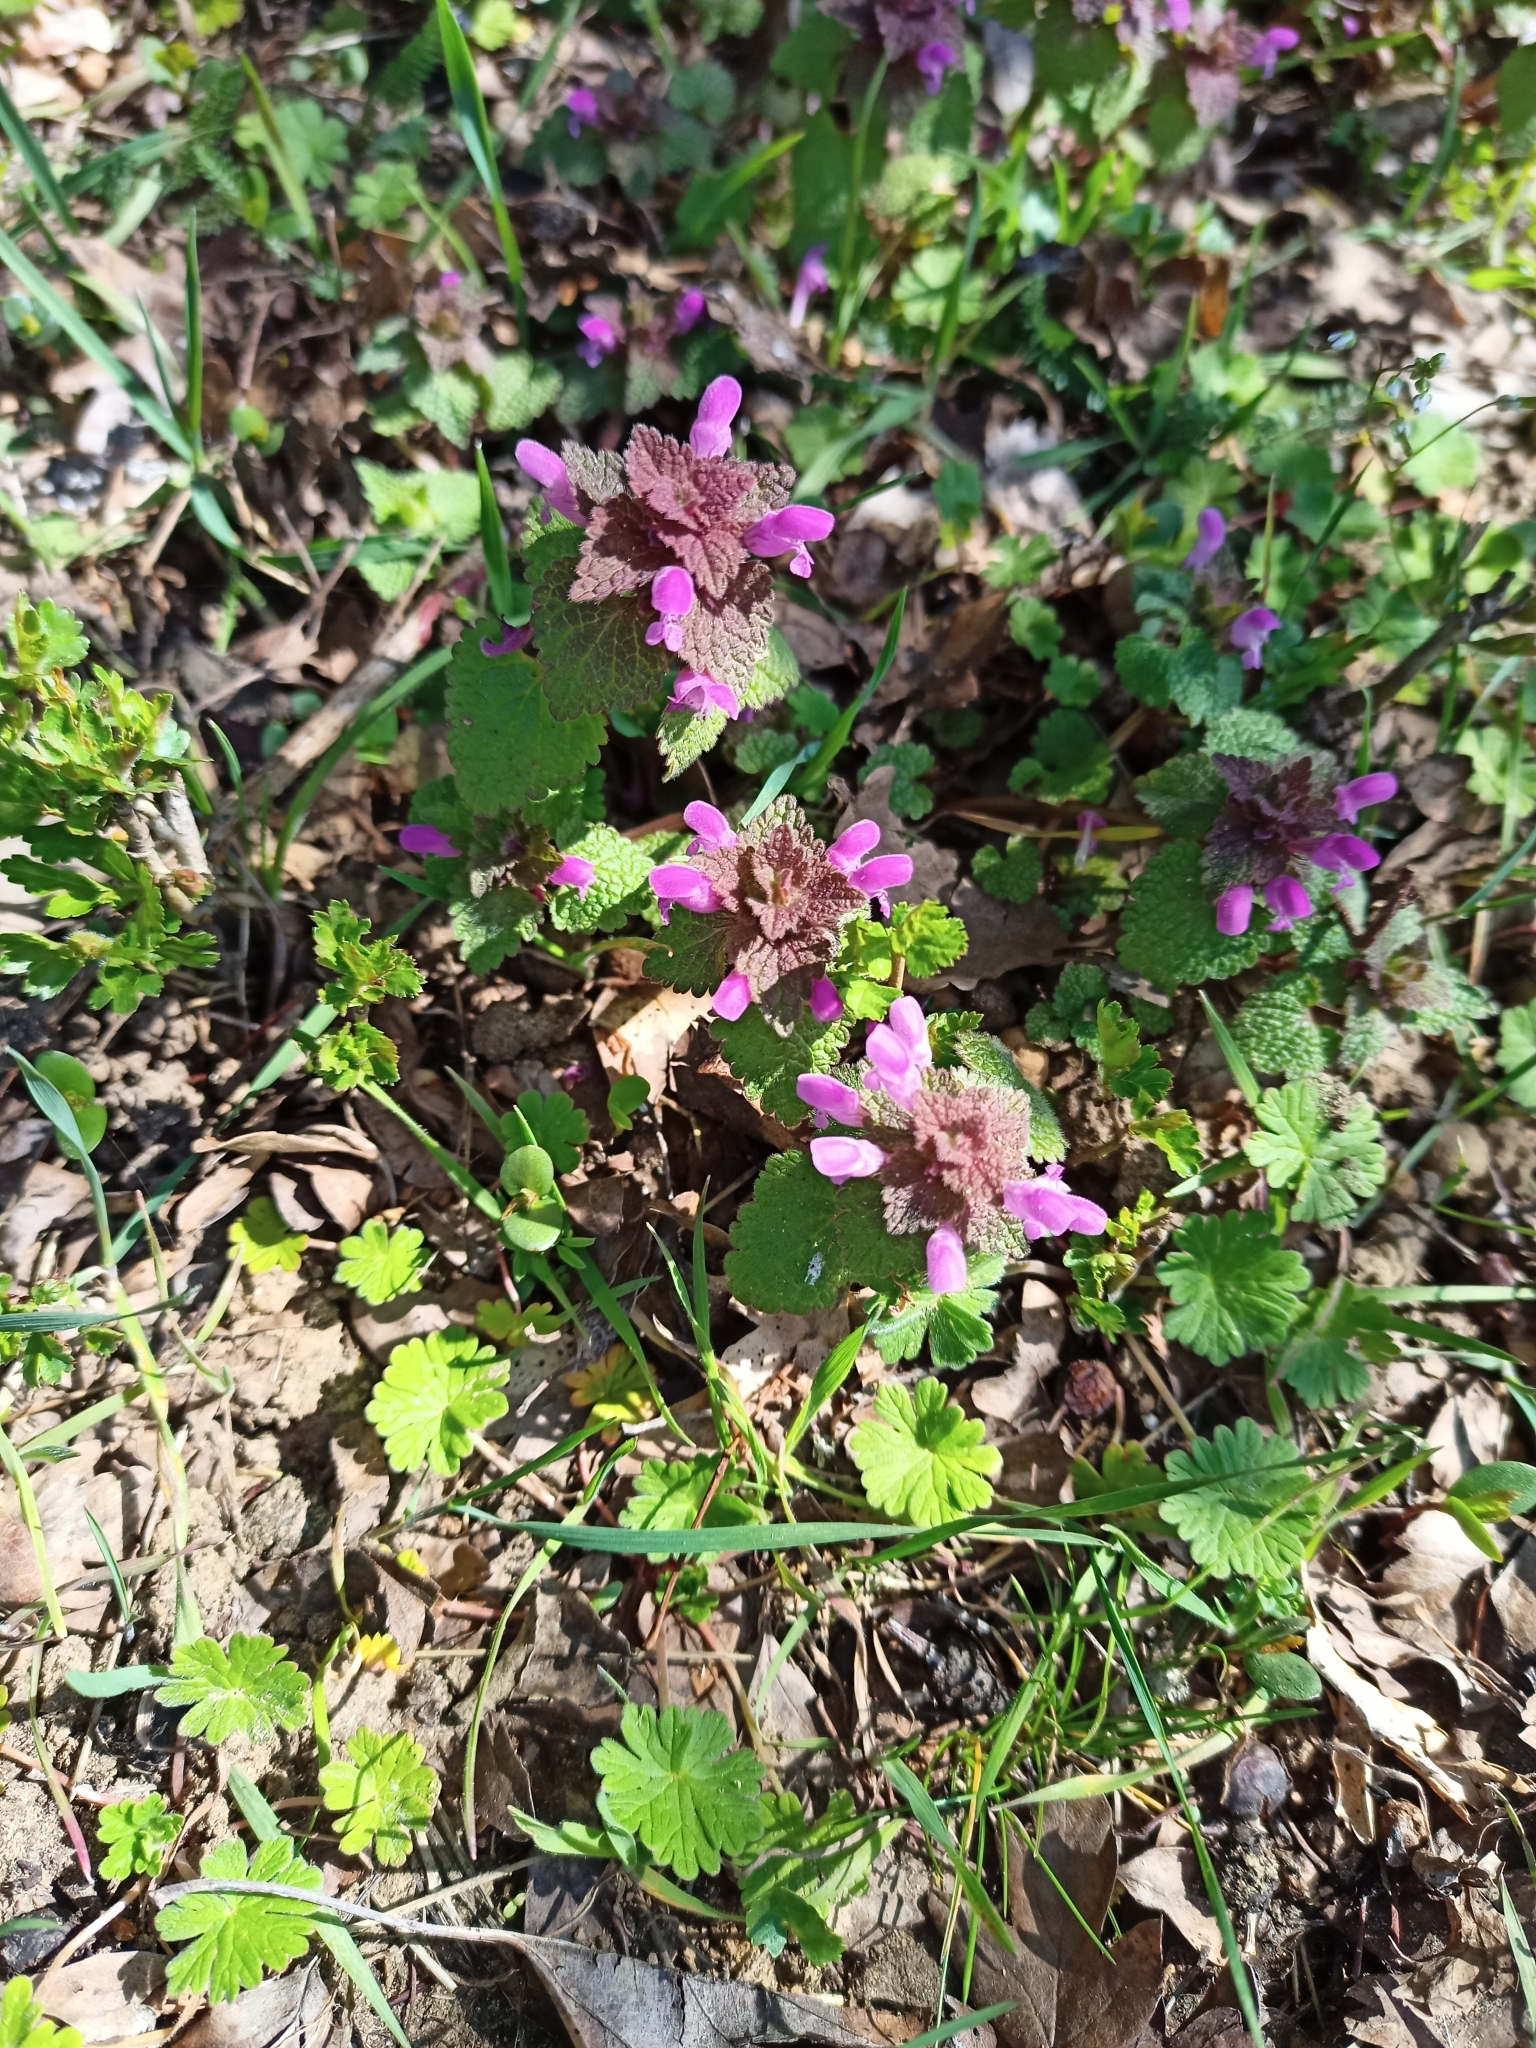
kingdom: Plantae
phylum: Tracheophyta
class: Magnoliopsida
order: Lamiales
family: Lamiaceae
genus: Lamium
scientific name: Lamium purpureum
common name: Red dead-nettle
